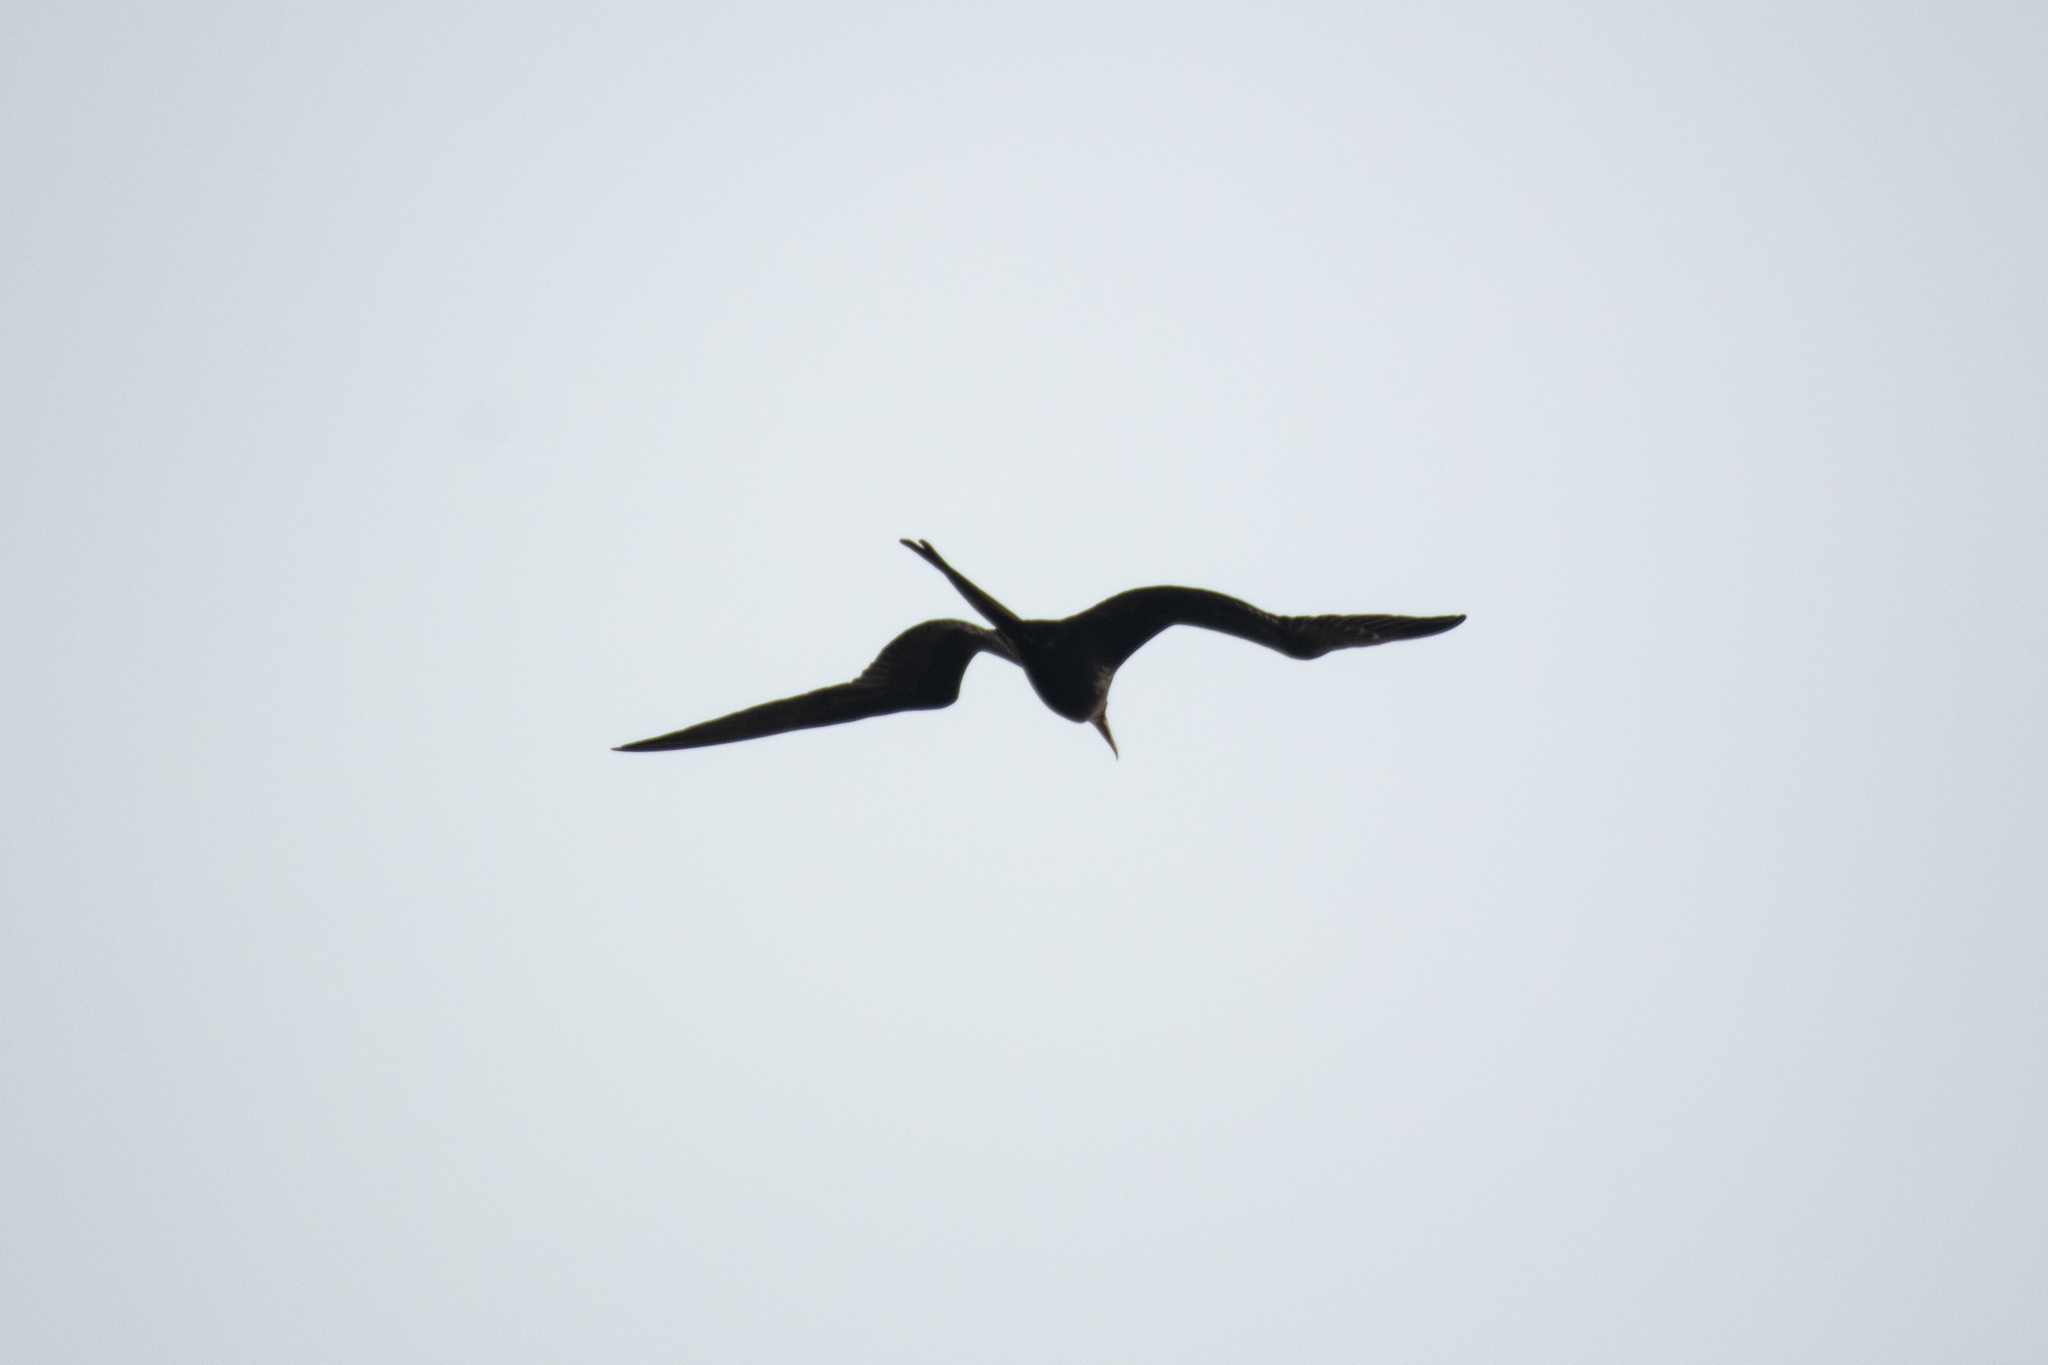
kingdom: Animalia
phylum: Chordata
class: Aves
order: Suliformes
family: Fregatidae
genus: Fregata
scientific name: Fregata magnificens
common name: Magnificent frigatebird
